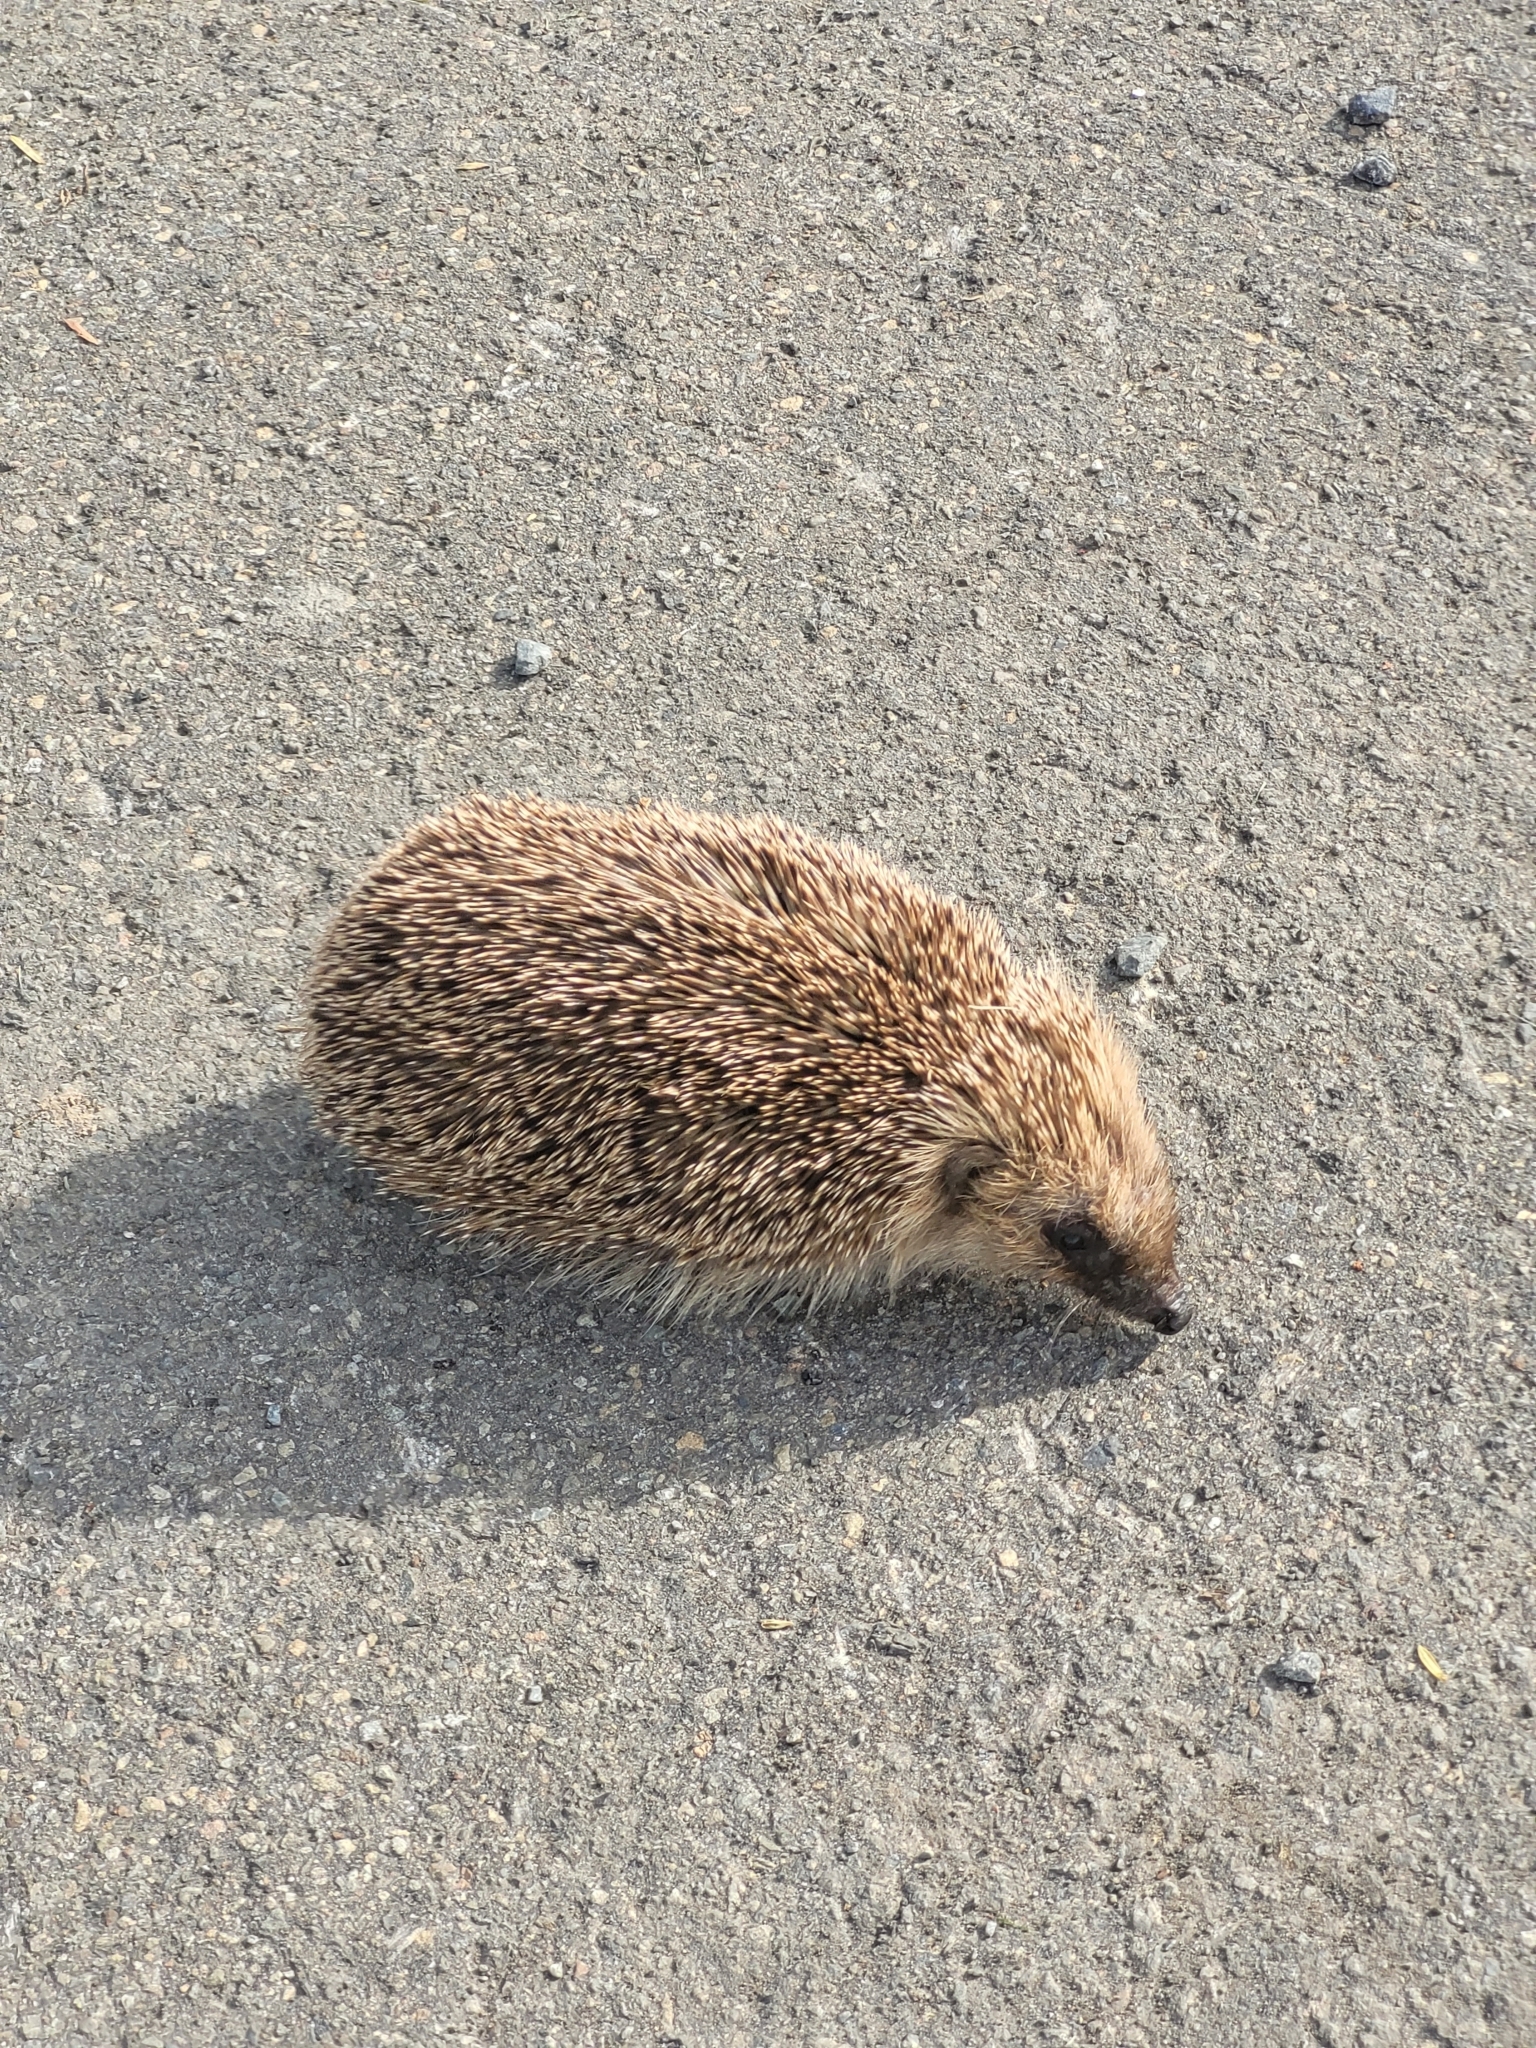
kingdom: Animalia
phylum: Chordata
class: Mammalia
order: Erinaceomorpha
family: Erinaceidae
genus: Erinaceus
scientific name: Erinaceus europaeus
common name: West european hedgehog
